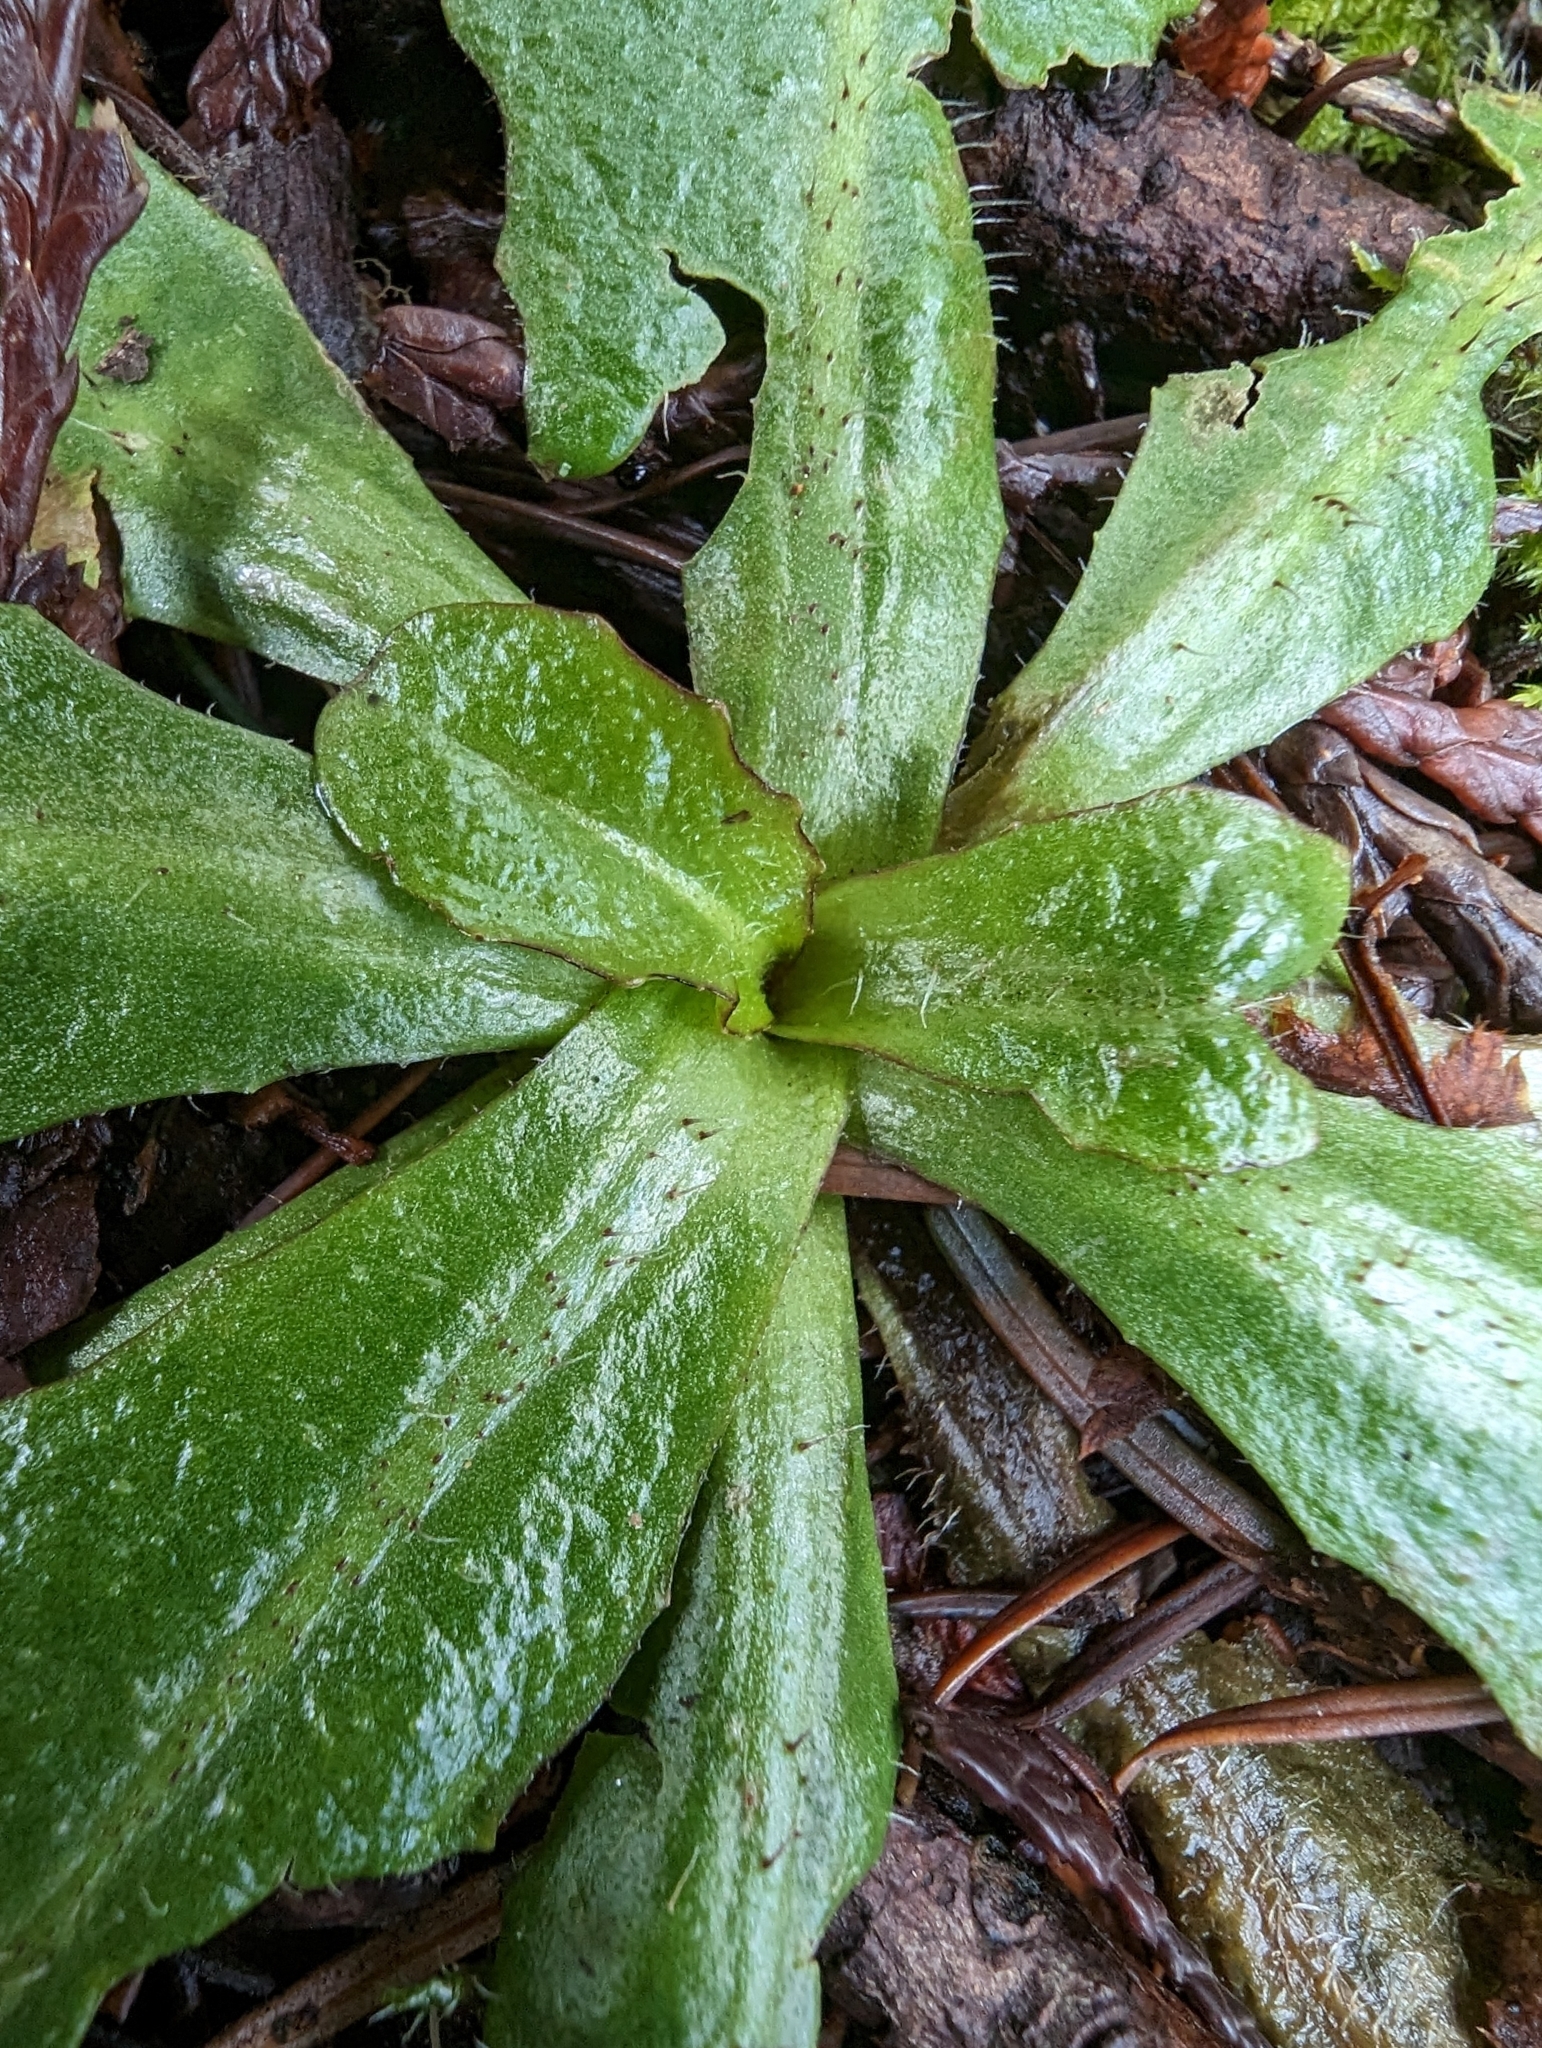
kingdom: Plantae
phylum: Tracheophyta
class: Magnoliopsida
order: Asterales
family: Asteraceae
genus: Hypochaeris
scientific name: Hypochaeris radicata
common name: Flatweed
